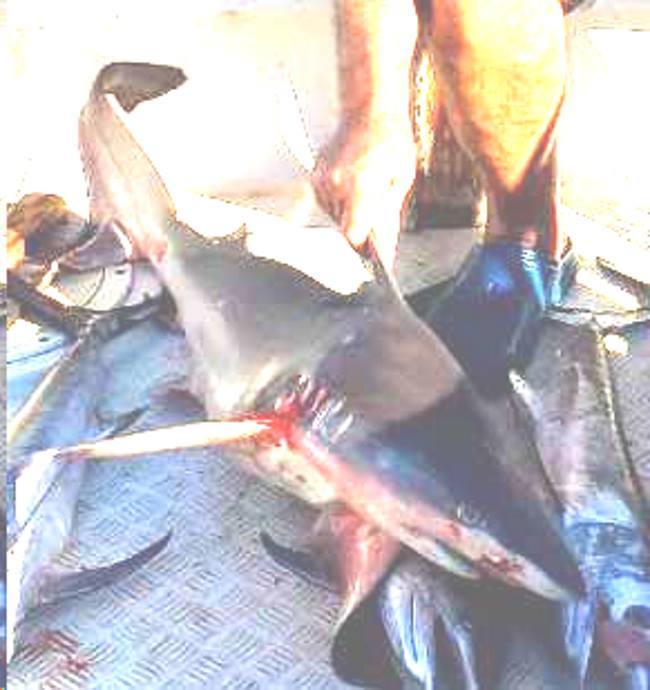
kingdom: Animalia
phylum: Chordata
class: Elasmobranchii
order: Carcharhiniformes
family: Carcharhinidae
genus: Carcharhinus
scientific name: Carcharhinus brachyurus
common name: Bronze whaler
